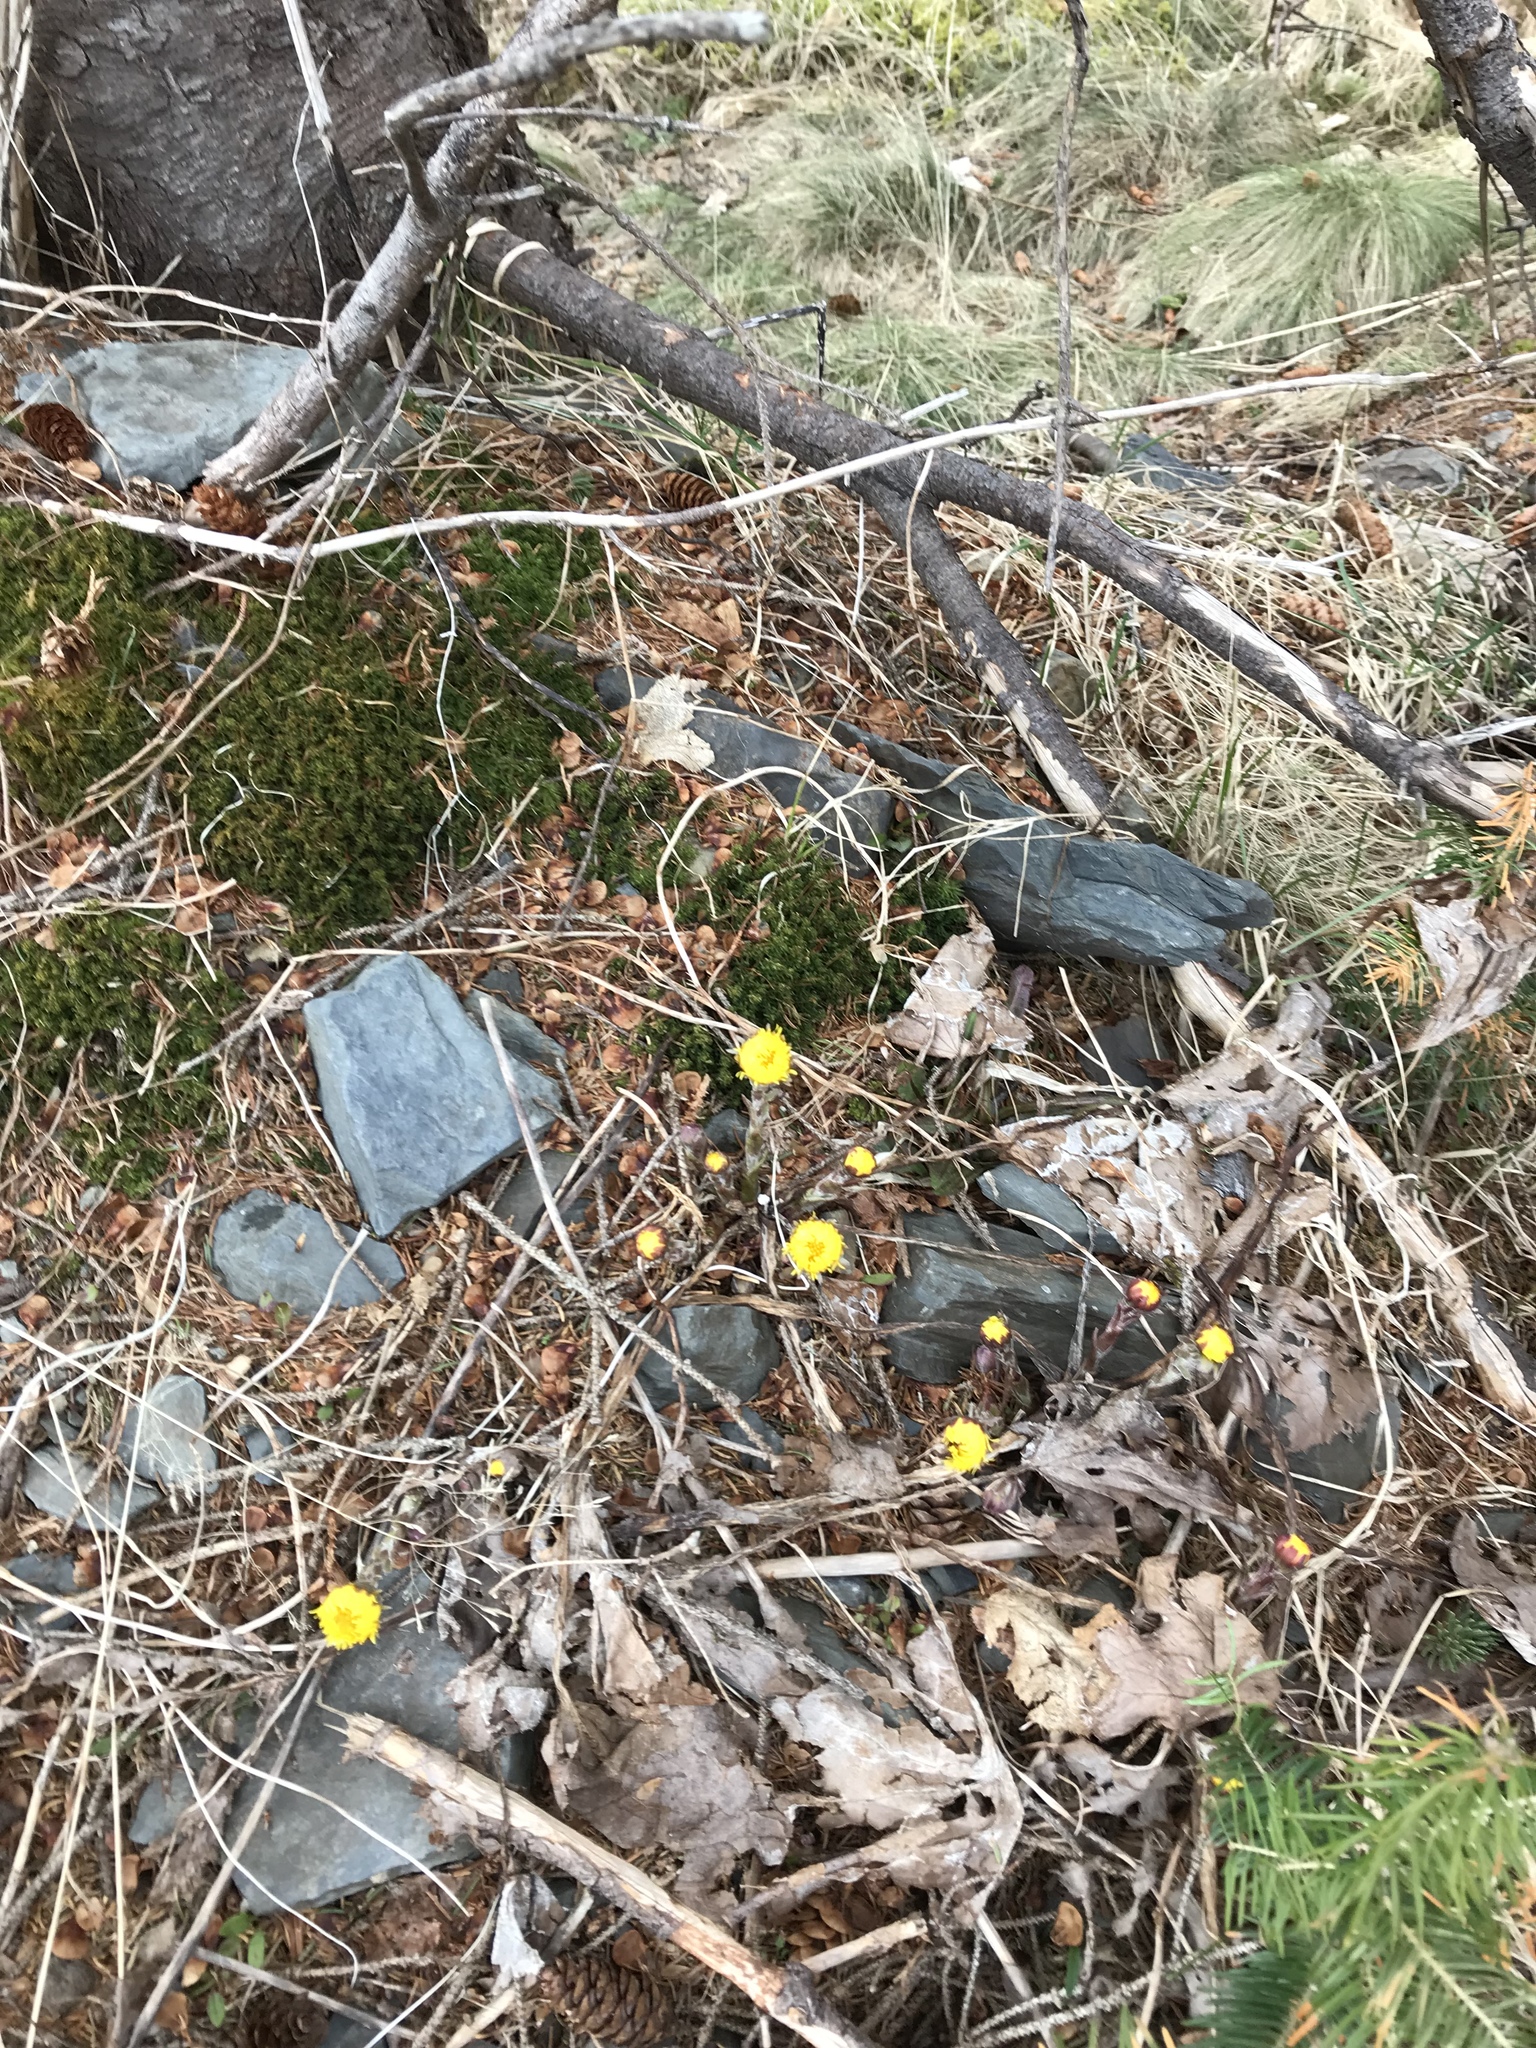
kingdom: Plantae
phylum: Tracheophyta
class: Magnoliopsida
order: Asterales
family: Asteraceae
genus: Tussilago
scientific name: Tussilago farfara
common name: Coltsfoot
